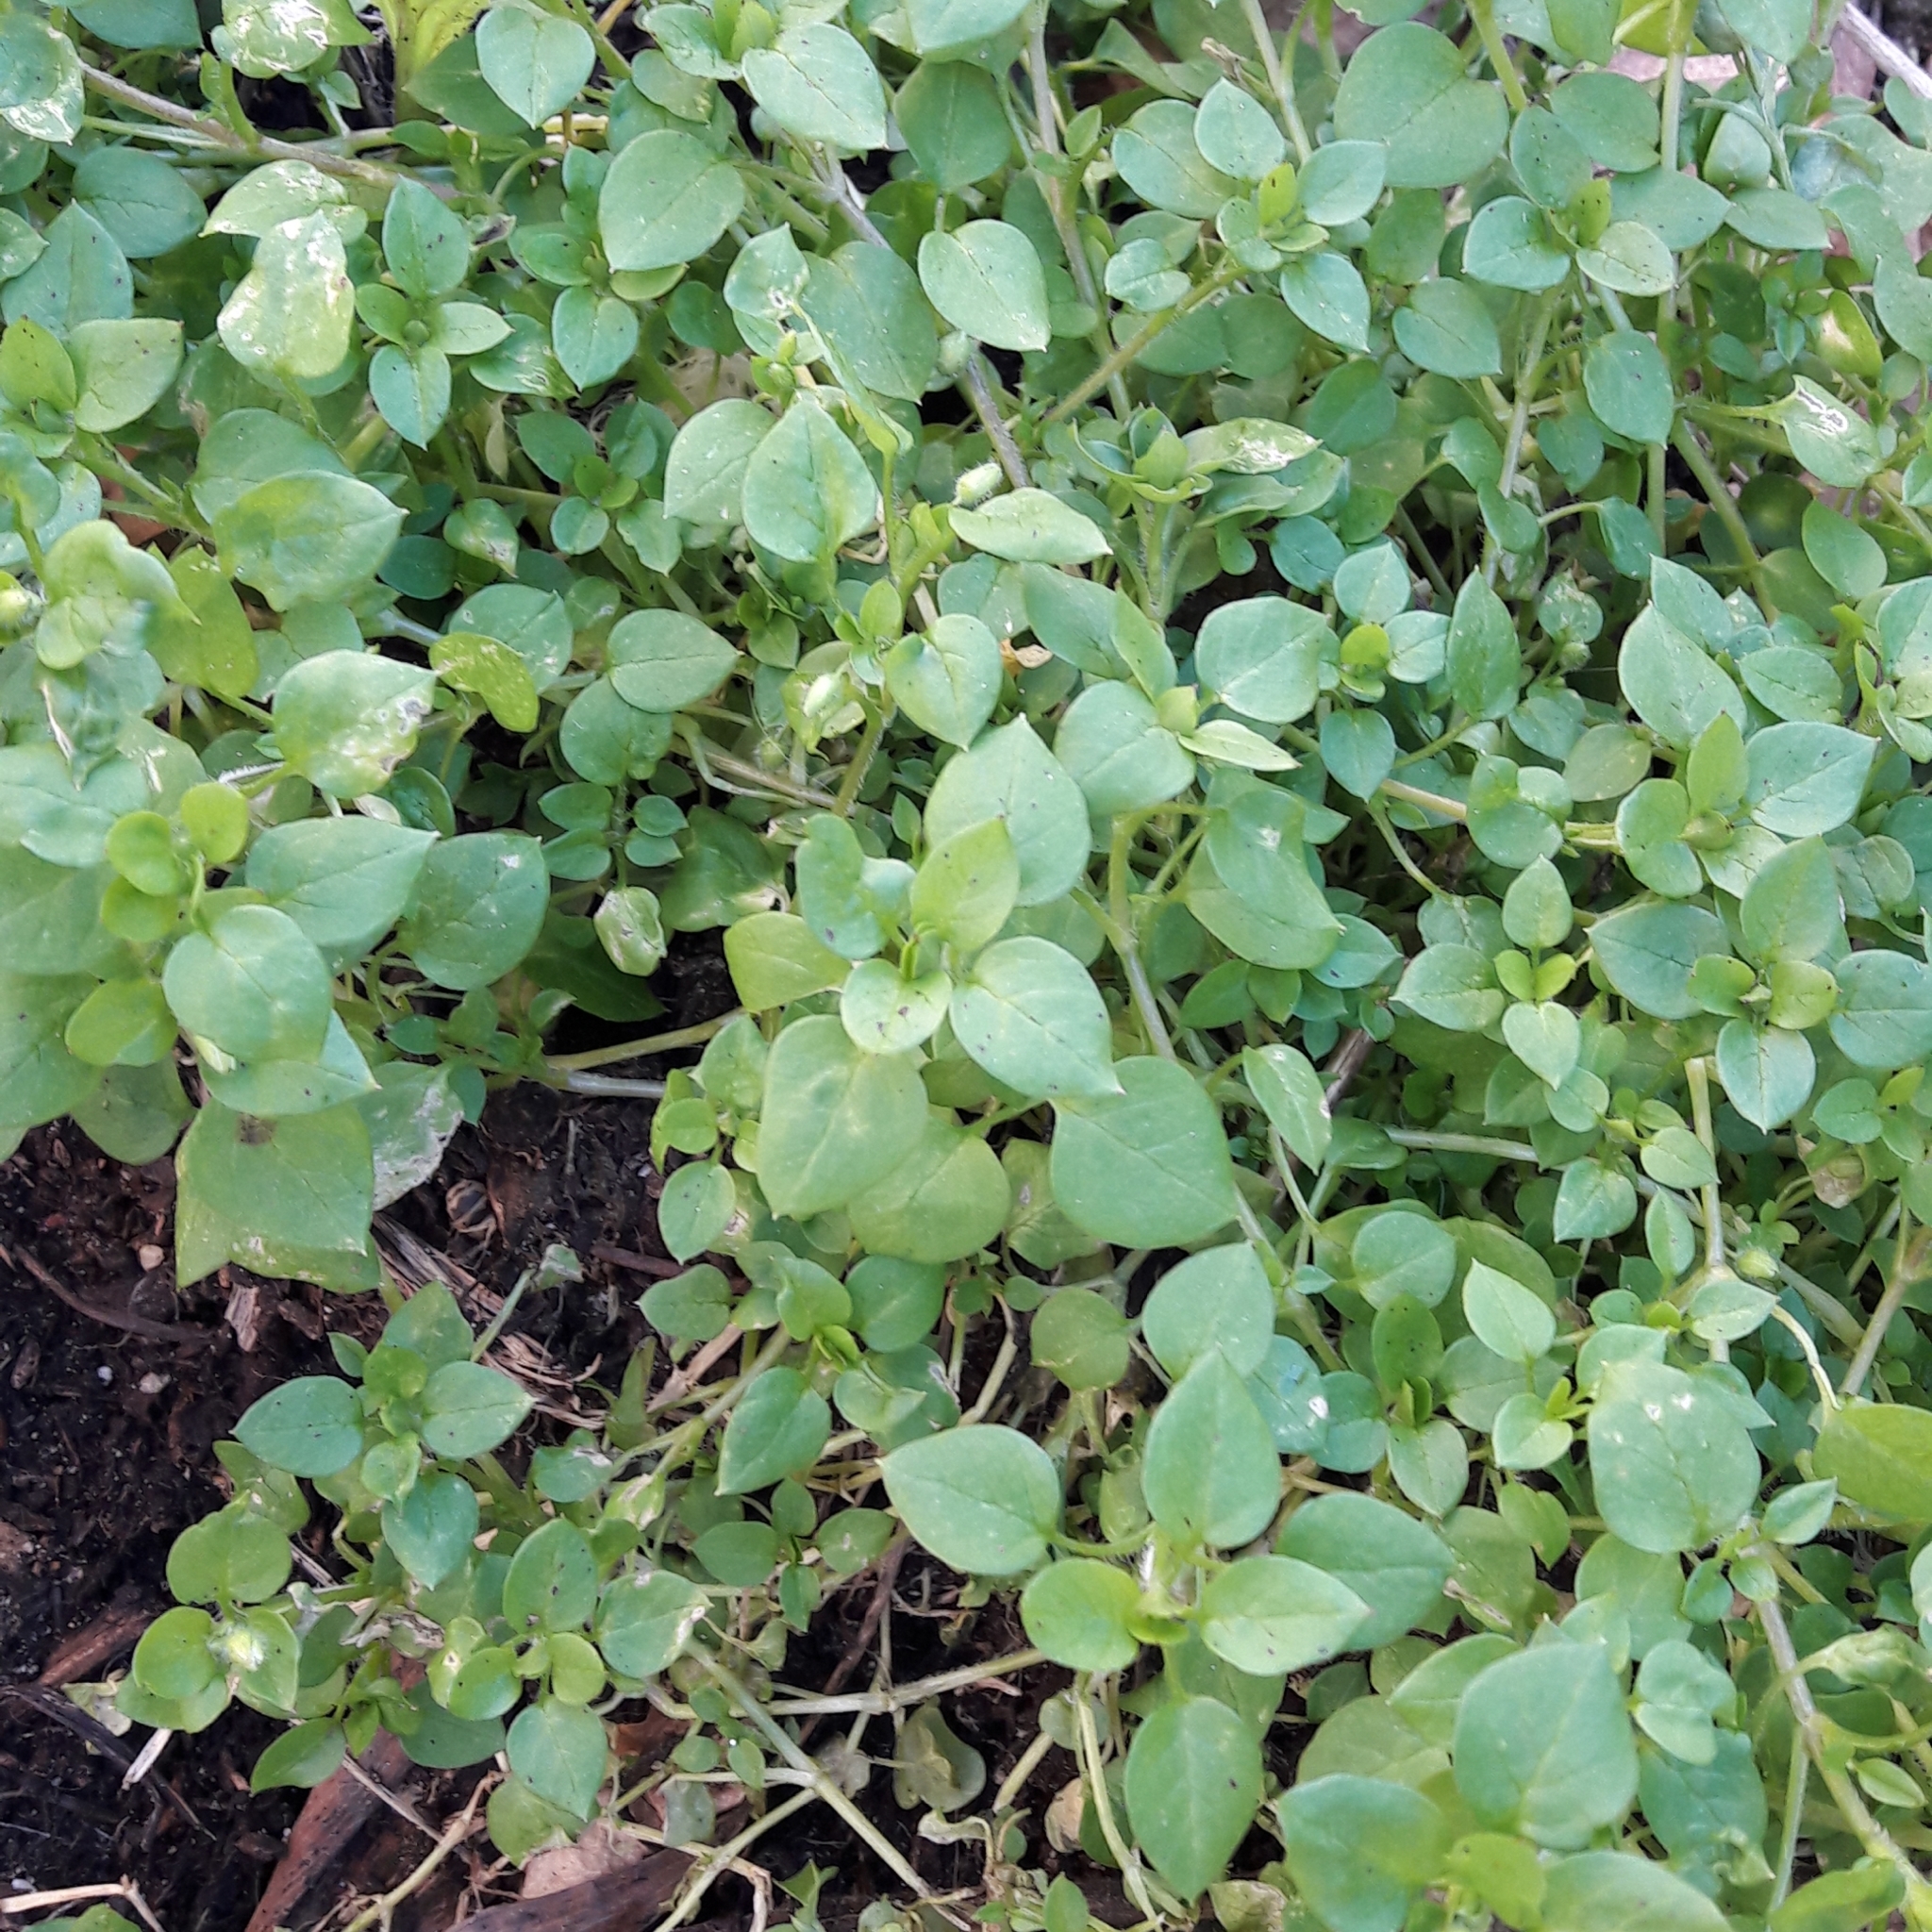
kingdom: Plantae
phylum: Tracheophyta
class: Magnoliopsida
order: Caryophyllales
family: Caryophyllaceae
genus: Stellaria
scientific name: Stellaria media
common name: Common chickweed
